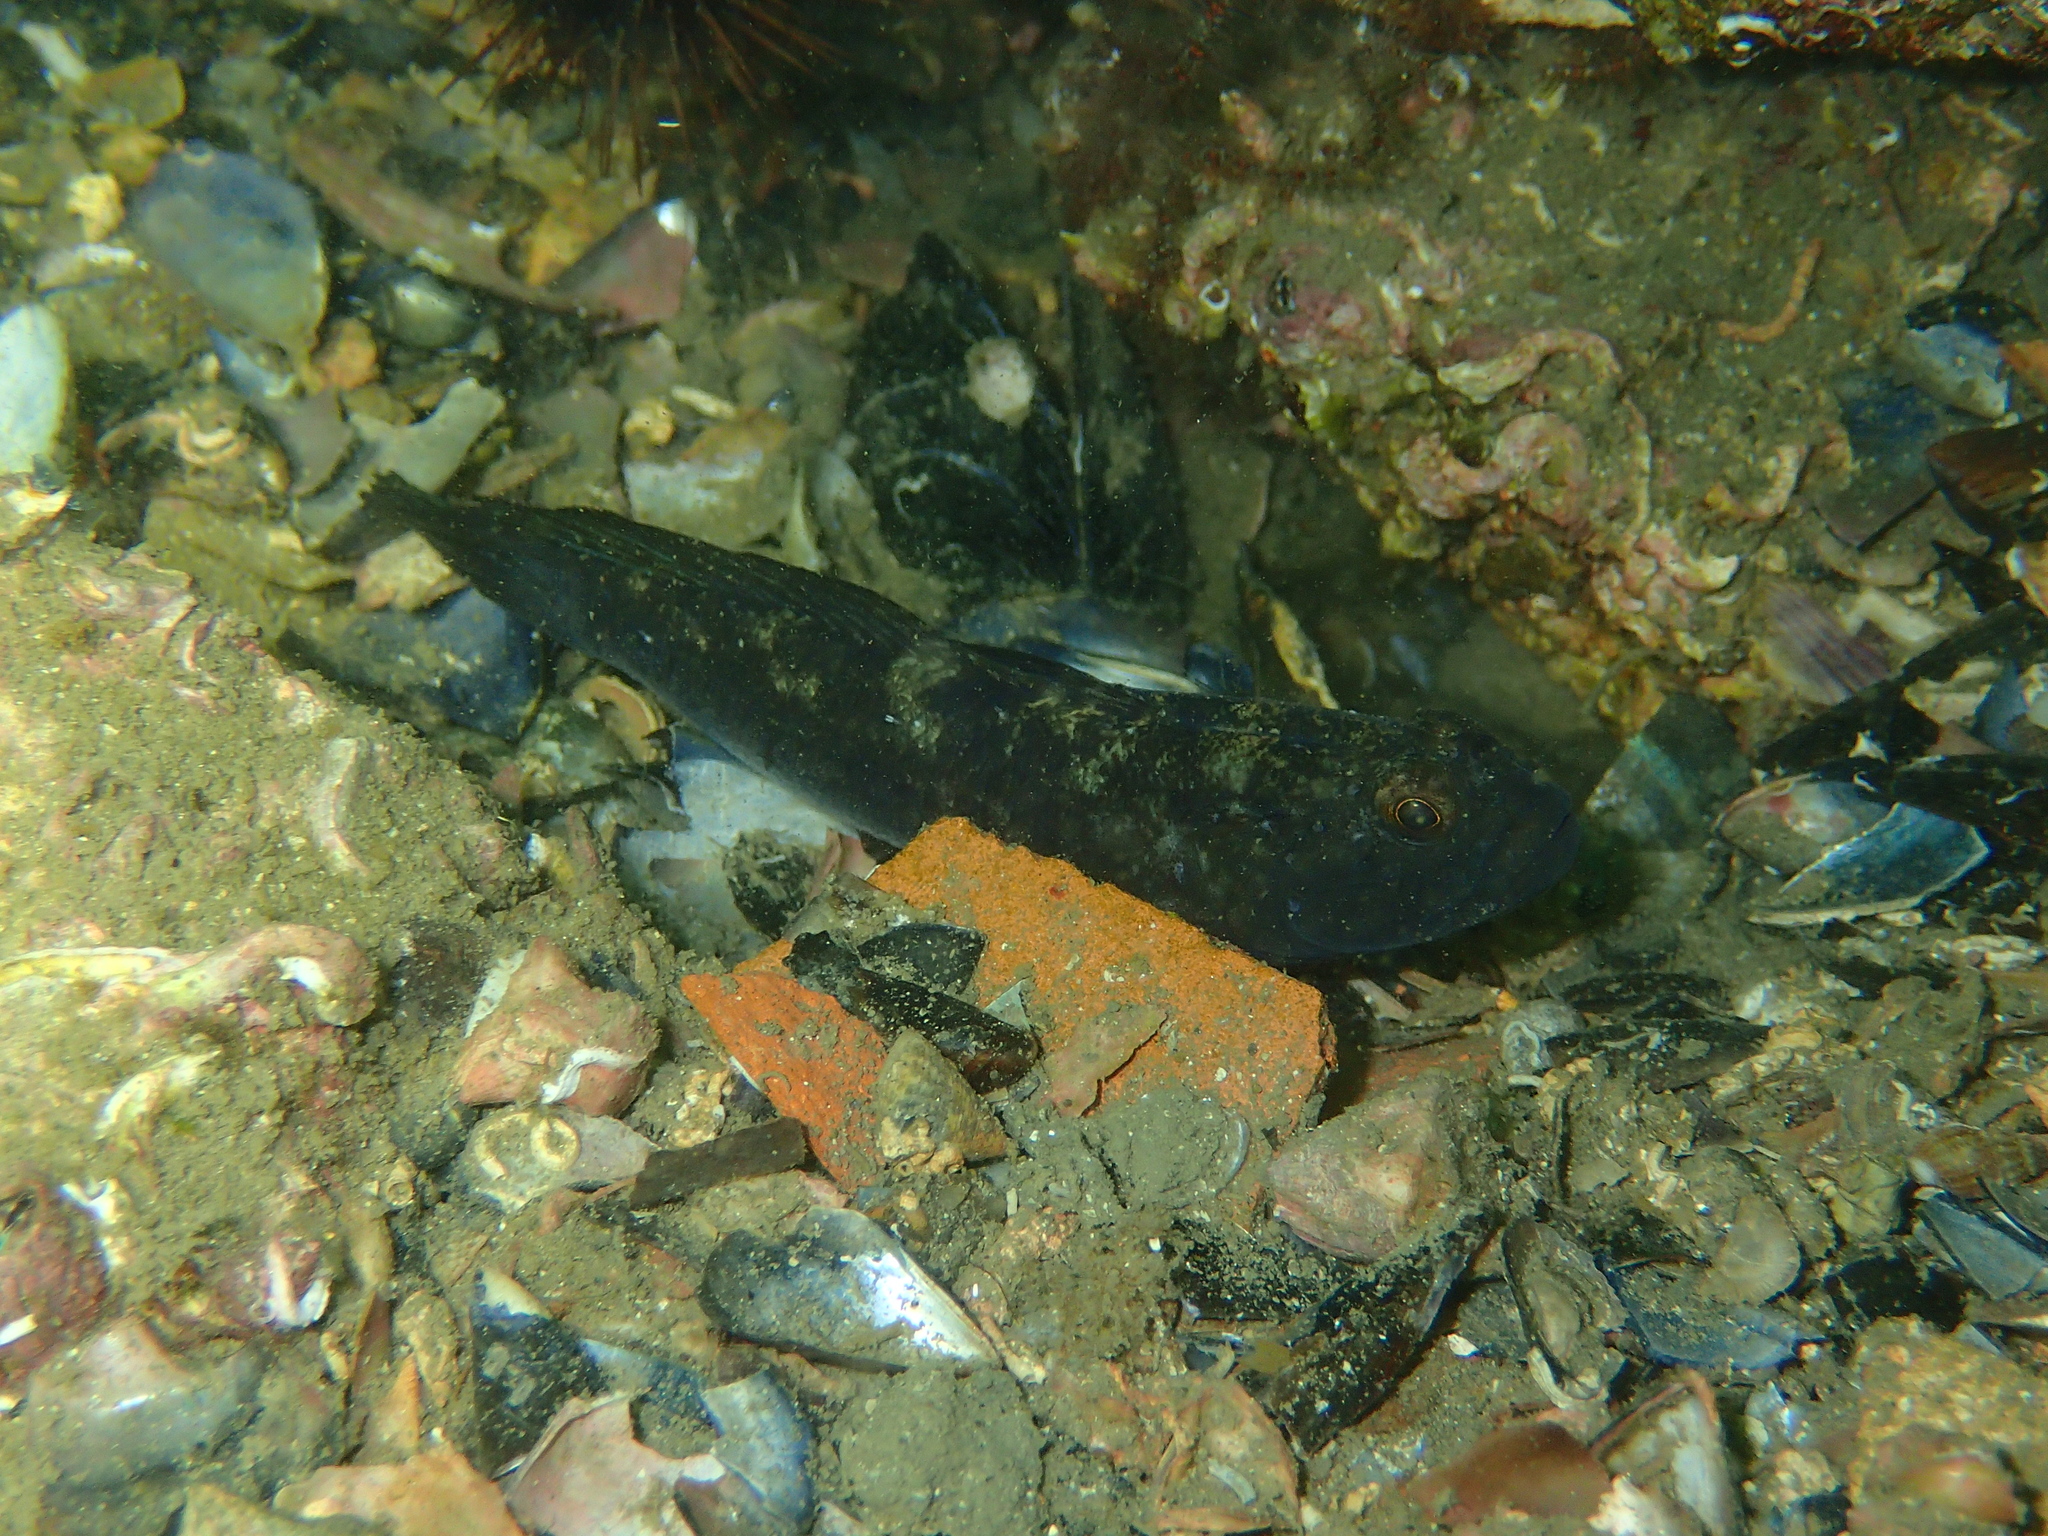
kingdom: Animalia
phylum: Chordata
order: Perciformes
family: Gobiidae
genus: Gobius
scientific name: Gobius niger
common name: Black goby
